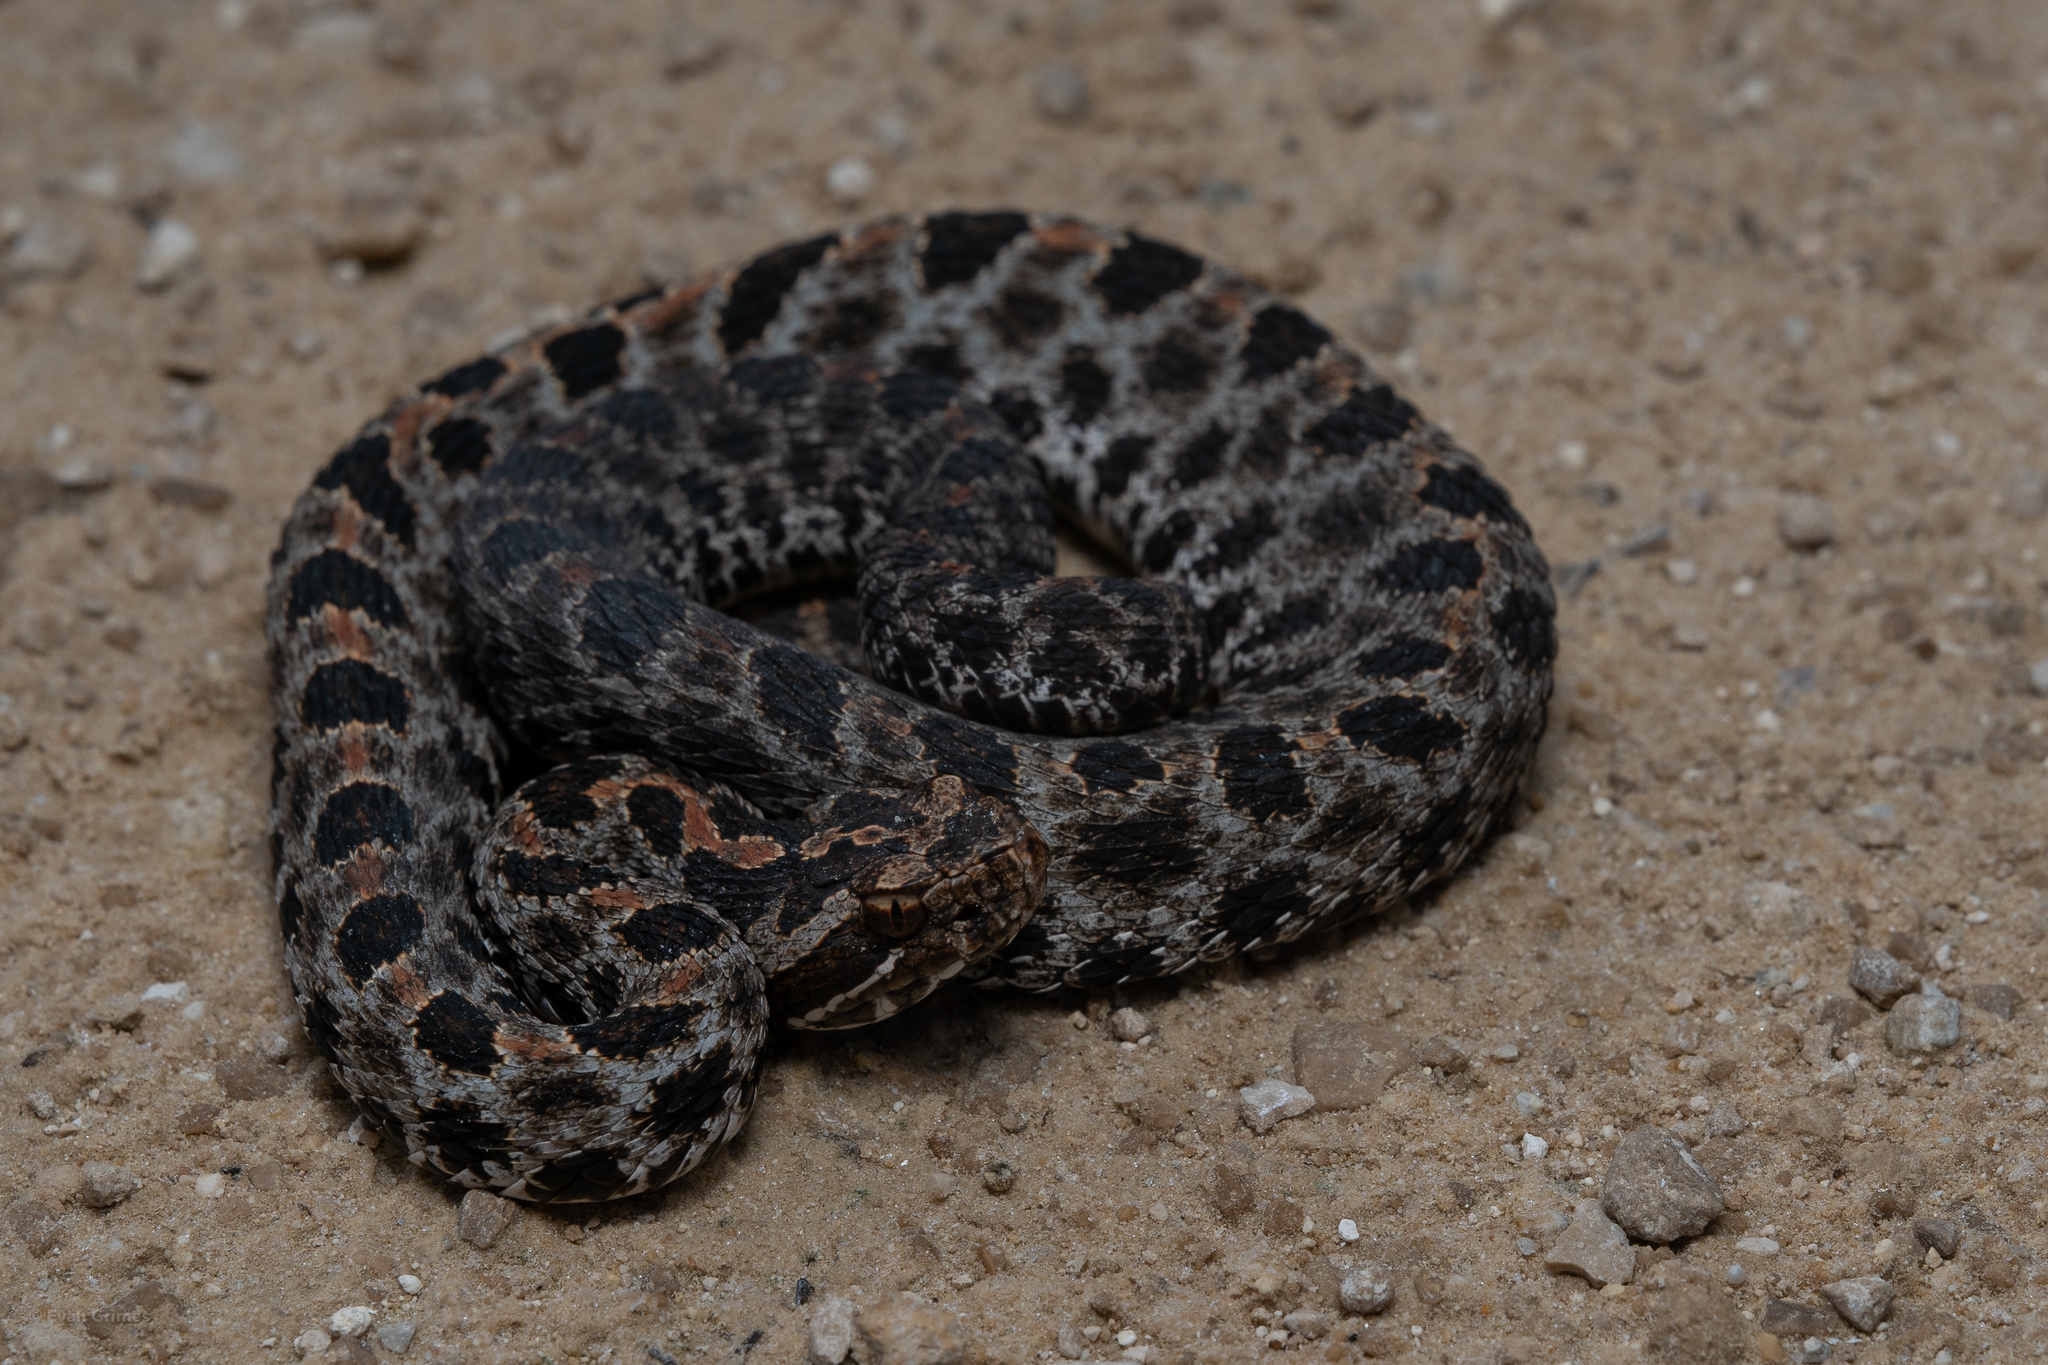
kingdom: Animalia
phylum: Chordata
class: Squamata
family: Viperidae
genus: Sistrurus
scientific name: Sistrurus miliarius
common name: Pygmy rattlesnake
